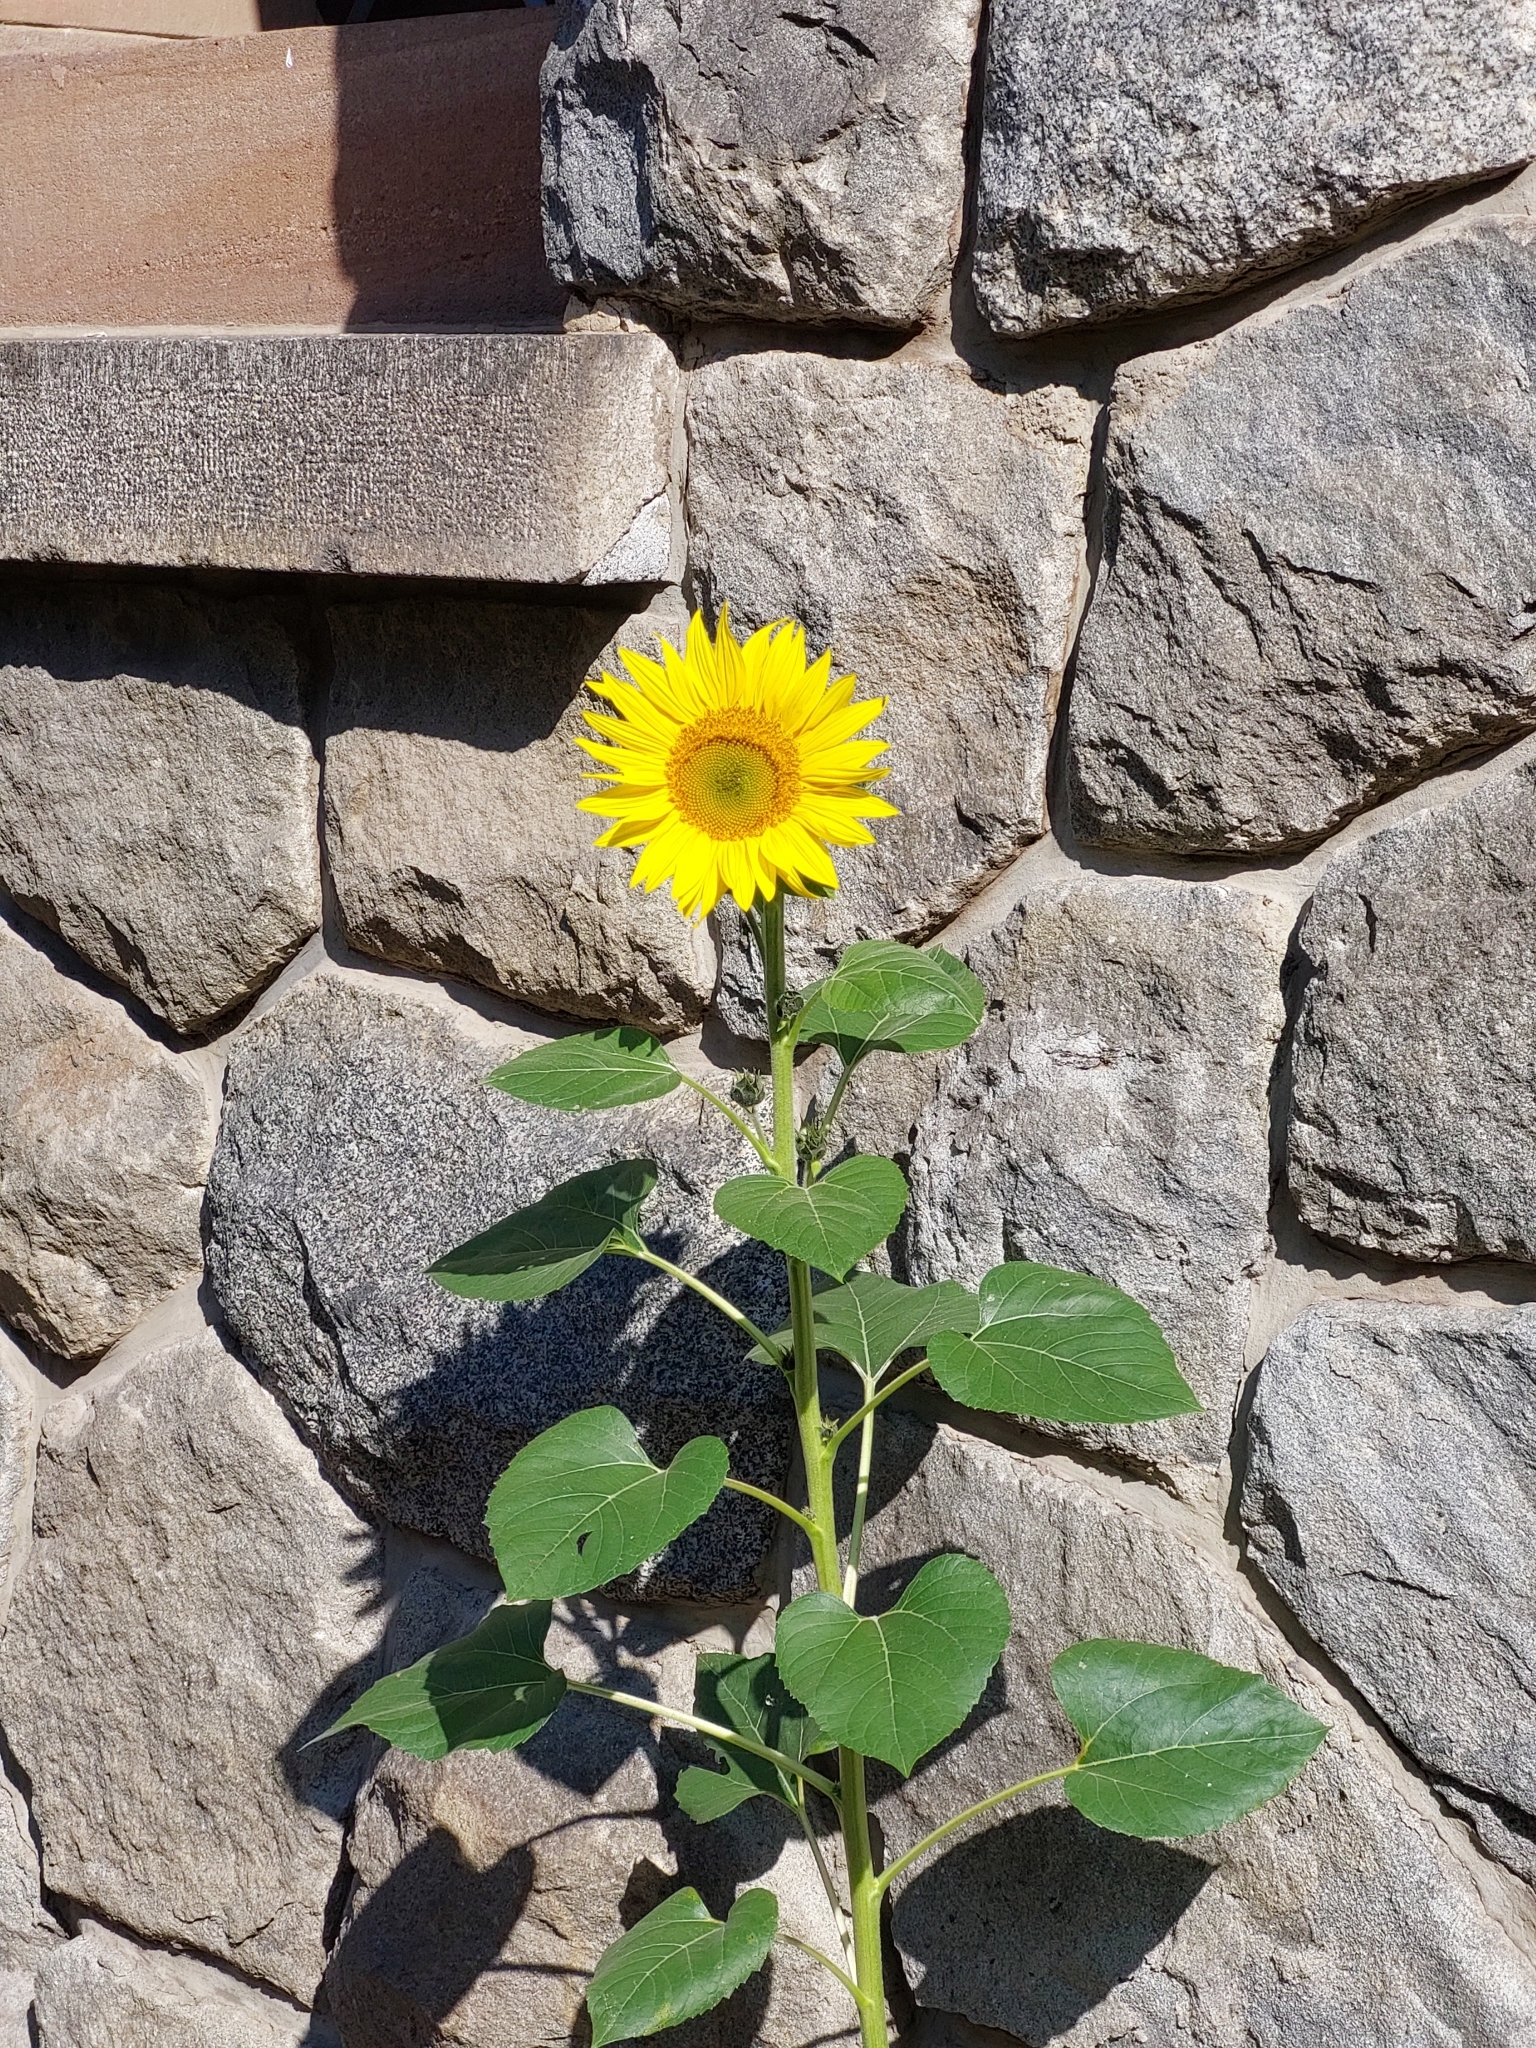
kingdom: Plantae
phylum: Tracheophyta
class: Magnoliopsida
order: Asterales
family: Asteraceae
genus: Helianthus
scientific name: Helianthus annuus
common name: Sunflower
